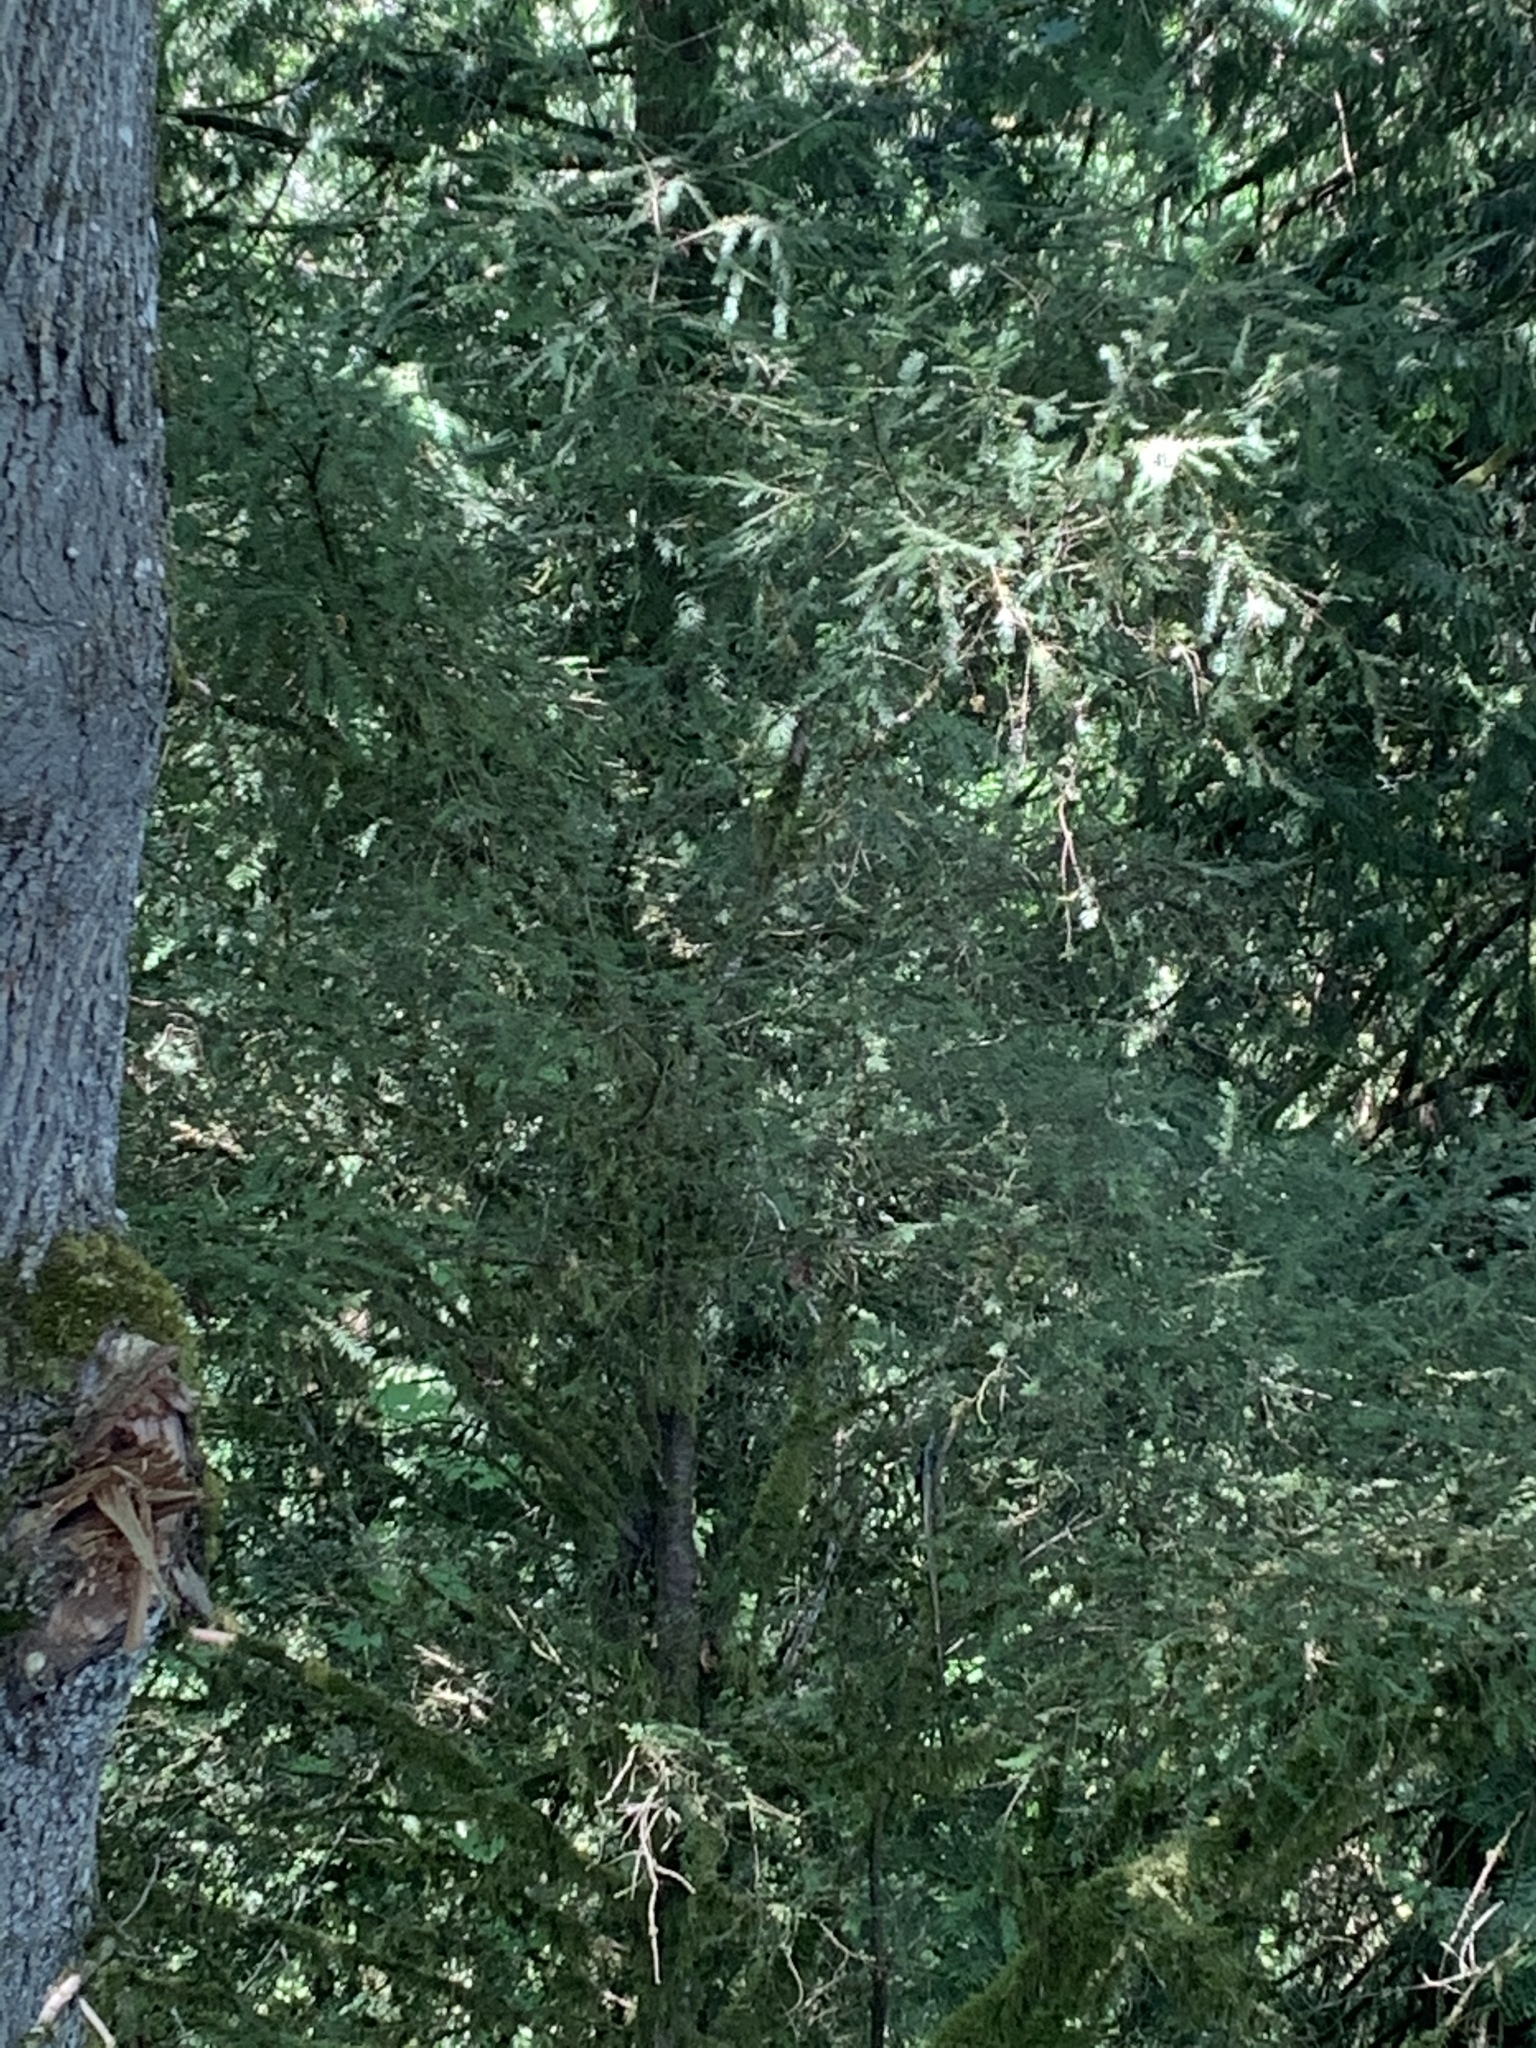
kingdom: Plantae
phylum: Tracheophyta
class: Pinopsida
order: Pinales
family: Taxaceae
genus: Taxus
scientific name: Taxus brevifolia
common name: Pacific yew
